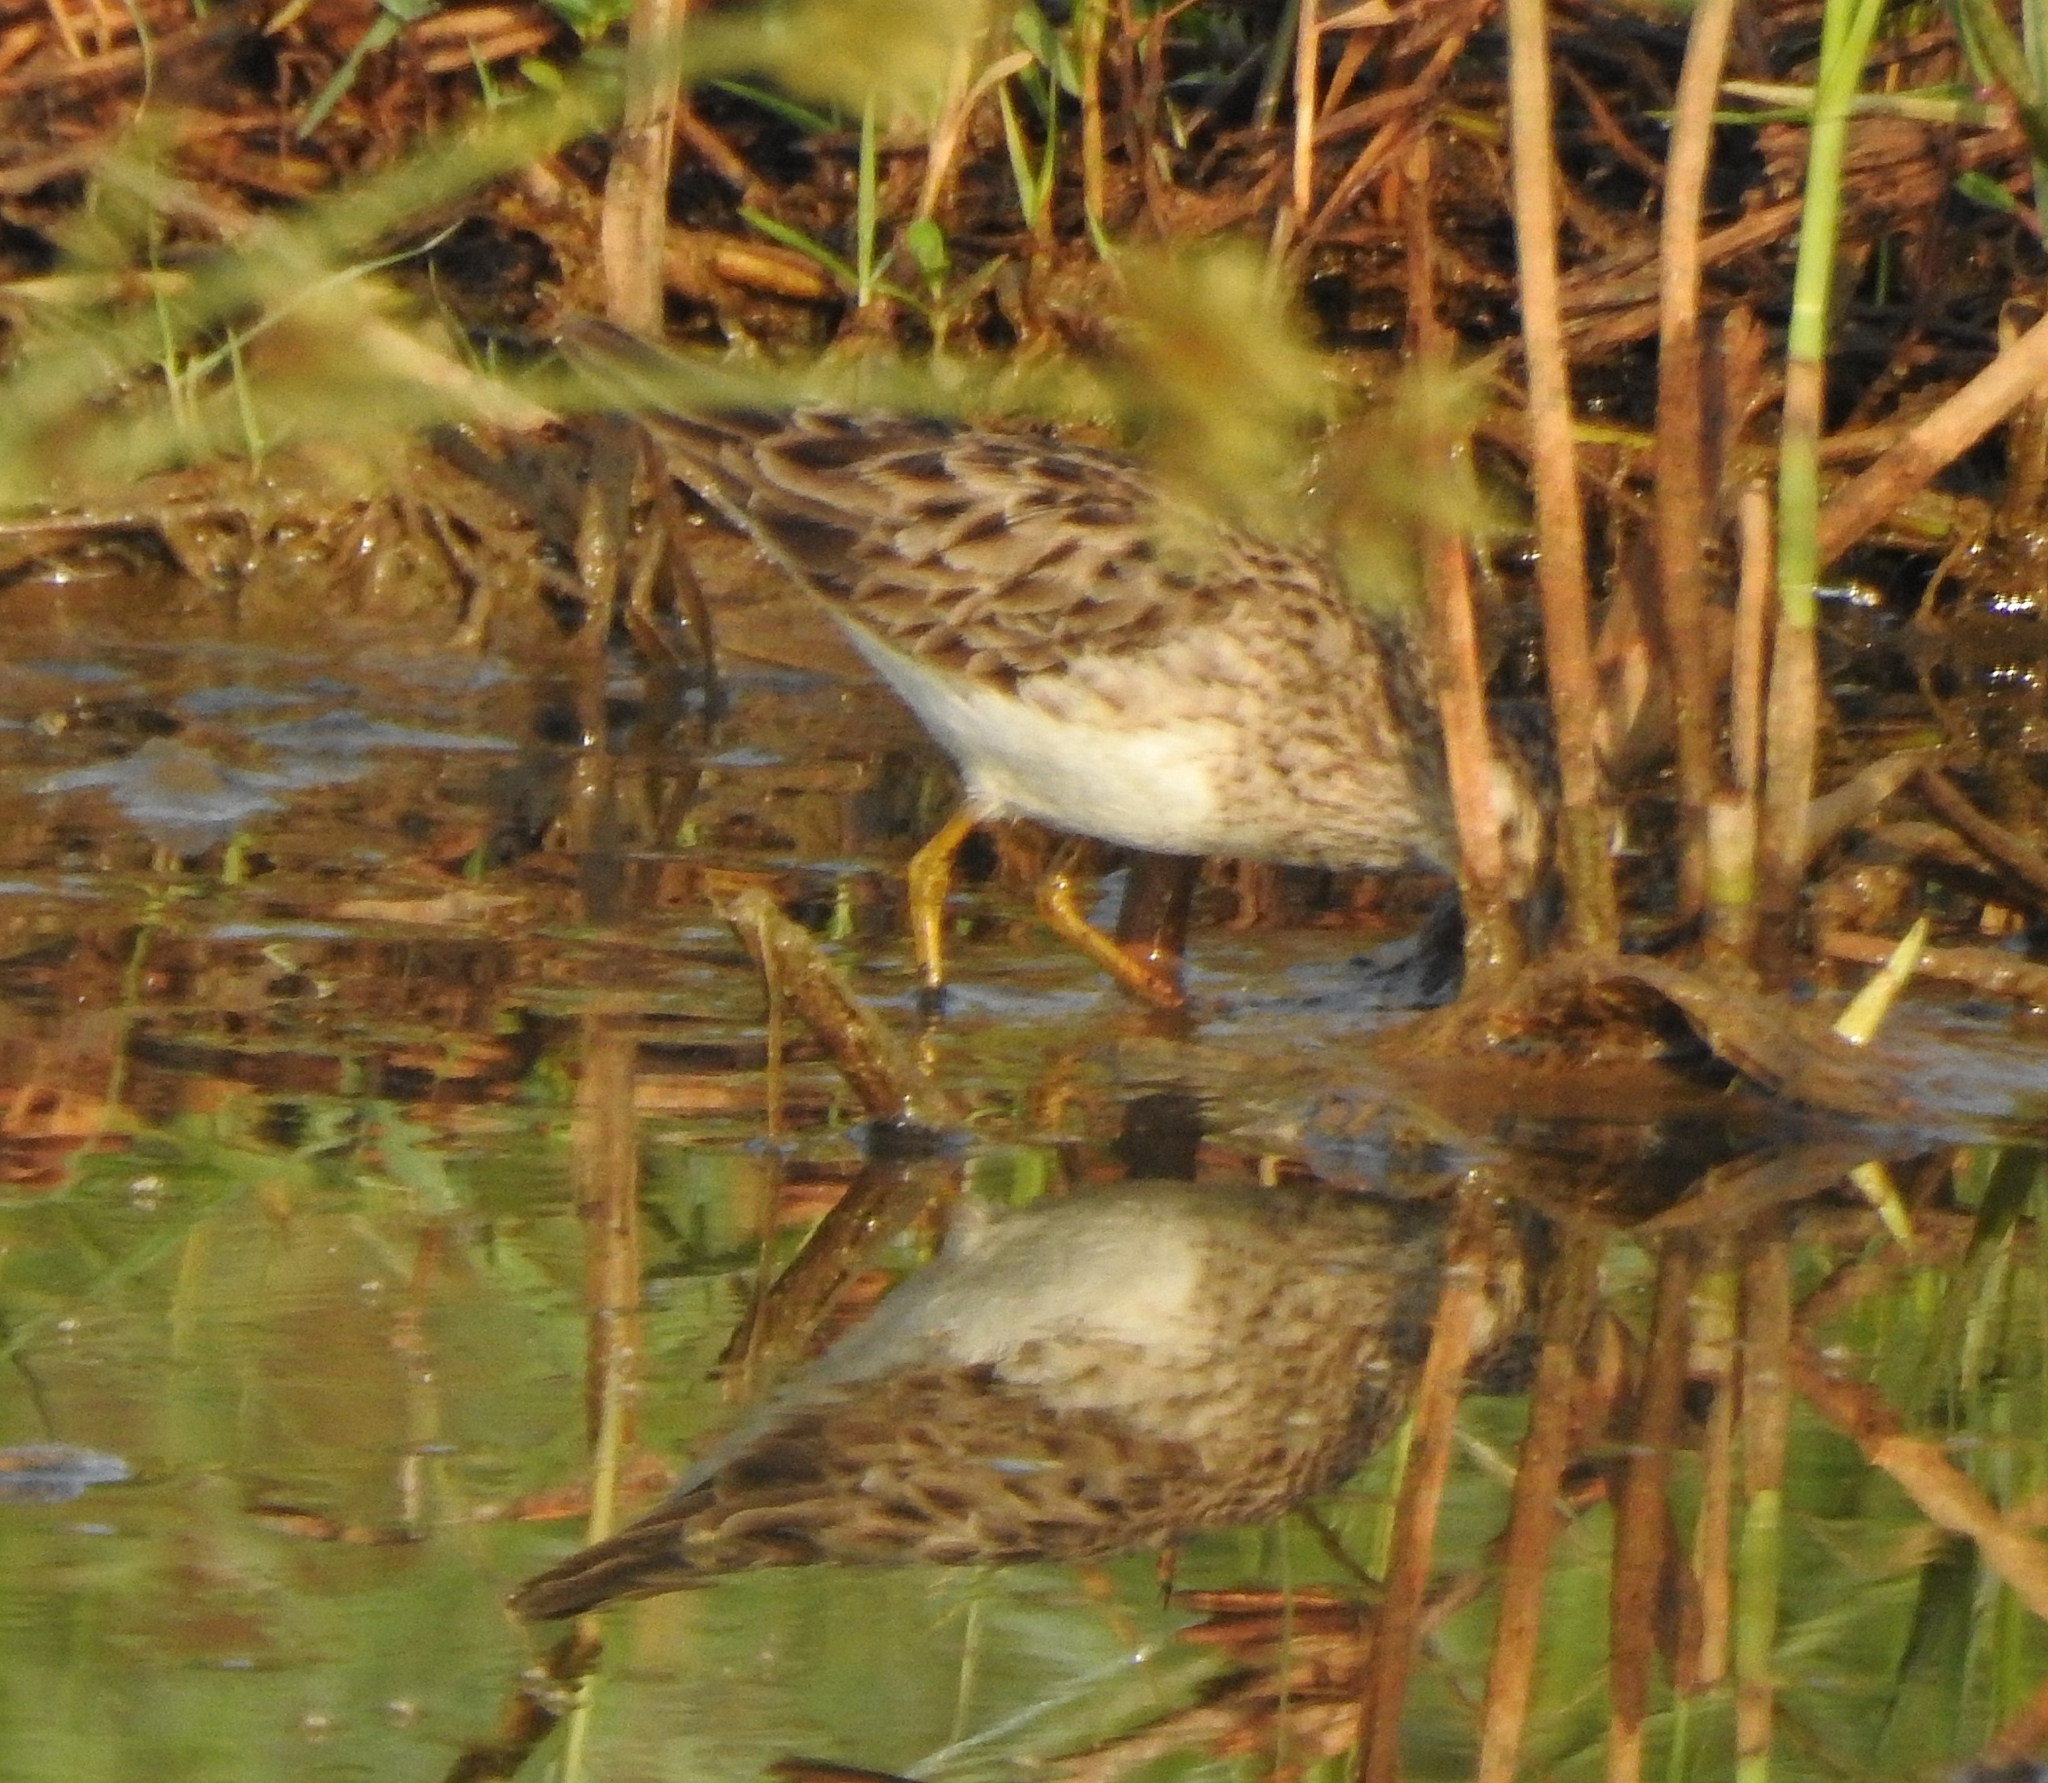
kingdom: Animalia
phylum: Chordata
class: Aves
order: Charadriiformes
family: Scolopacidae
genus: Calidris
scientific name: Calidris subminuta
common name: Long-toed stint
